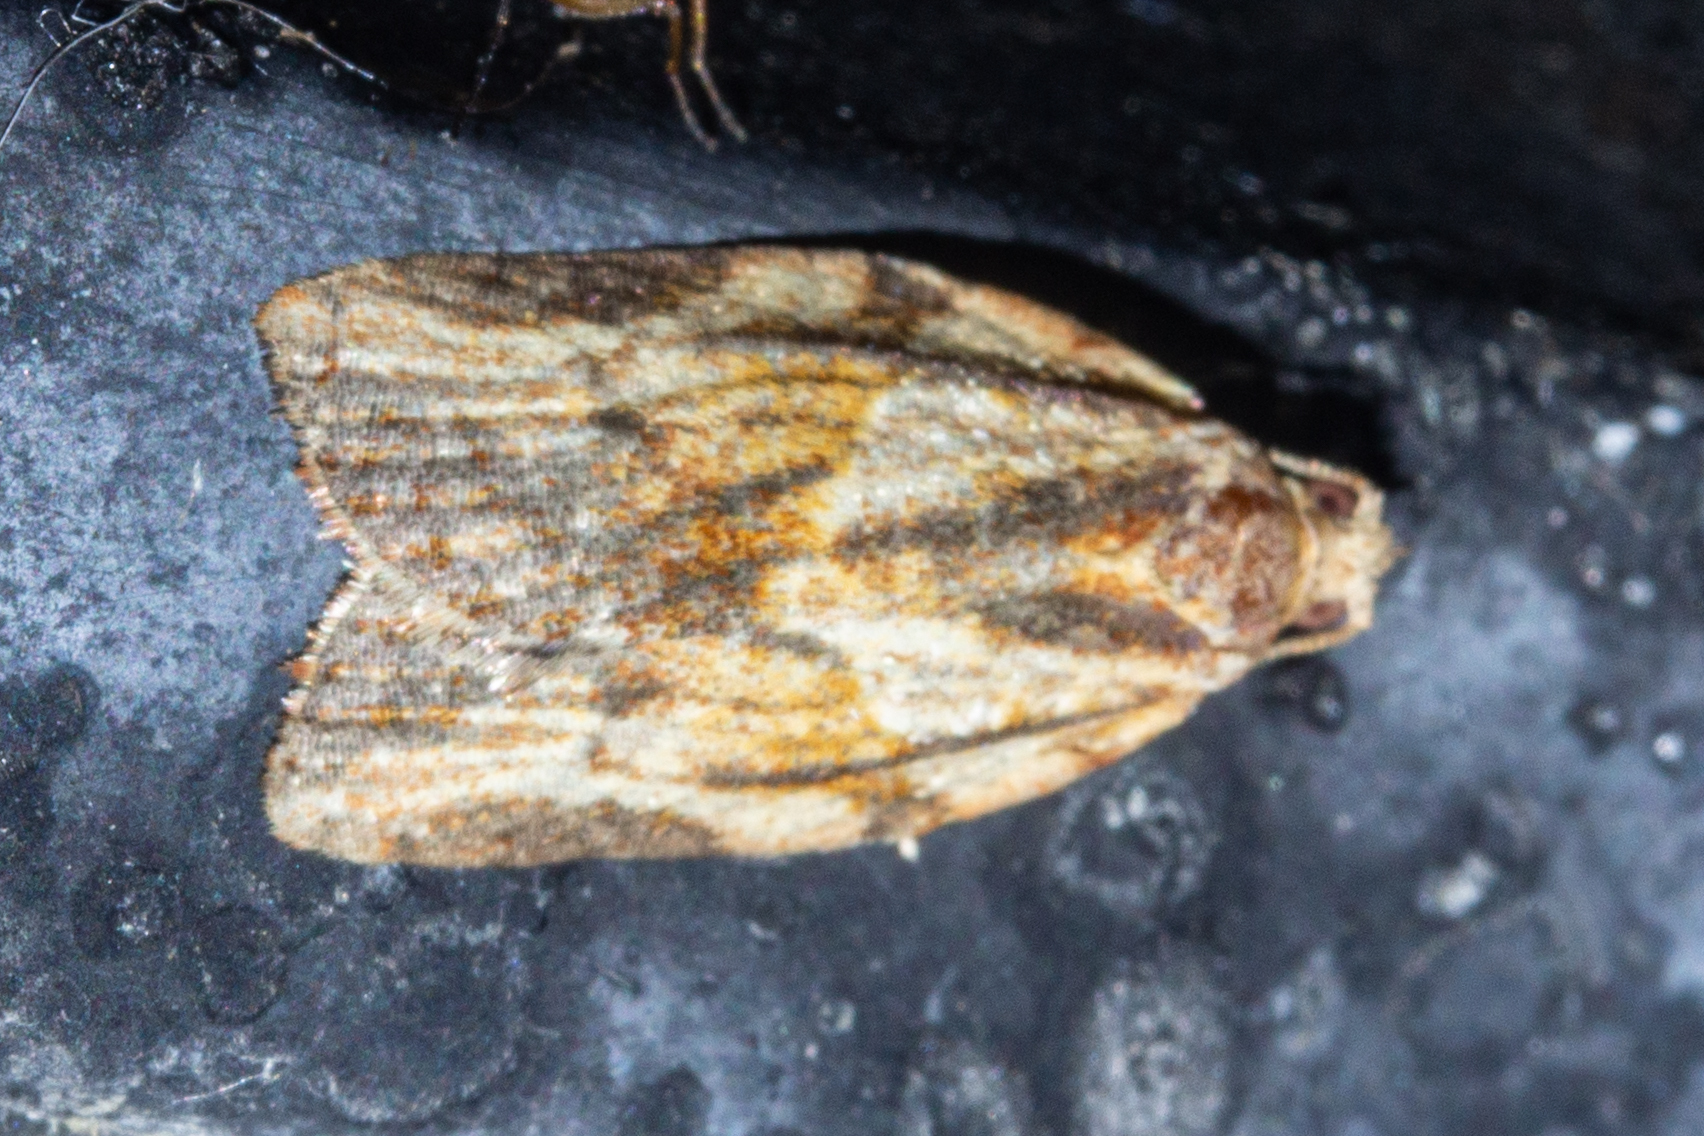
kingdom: Animalia
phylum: Arthropoda
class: Insecta
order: Lepidoptera
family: Tortricidae
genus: Epiphyas
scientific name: Epiphyas postvittana
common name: Light brown apple moth
